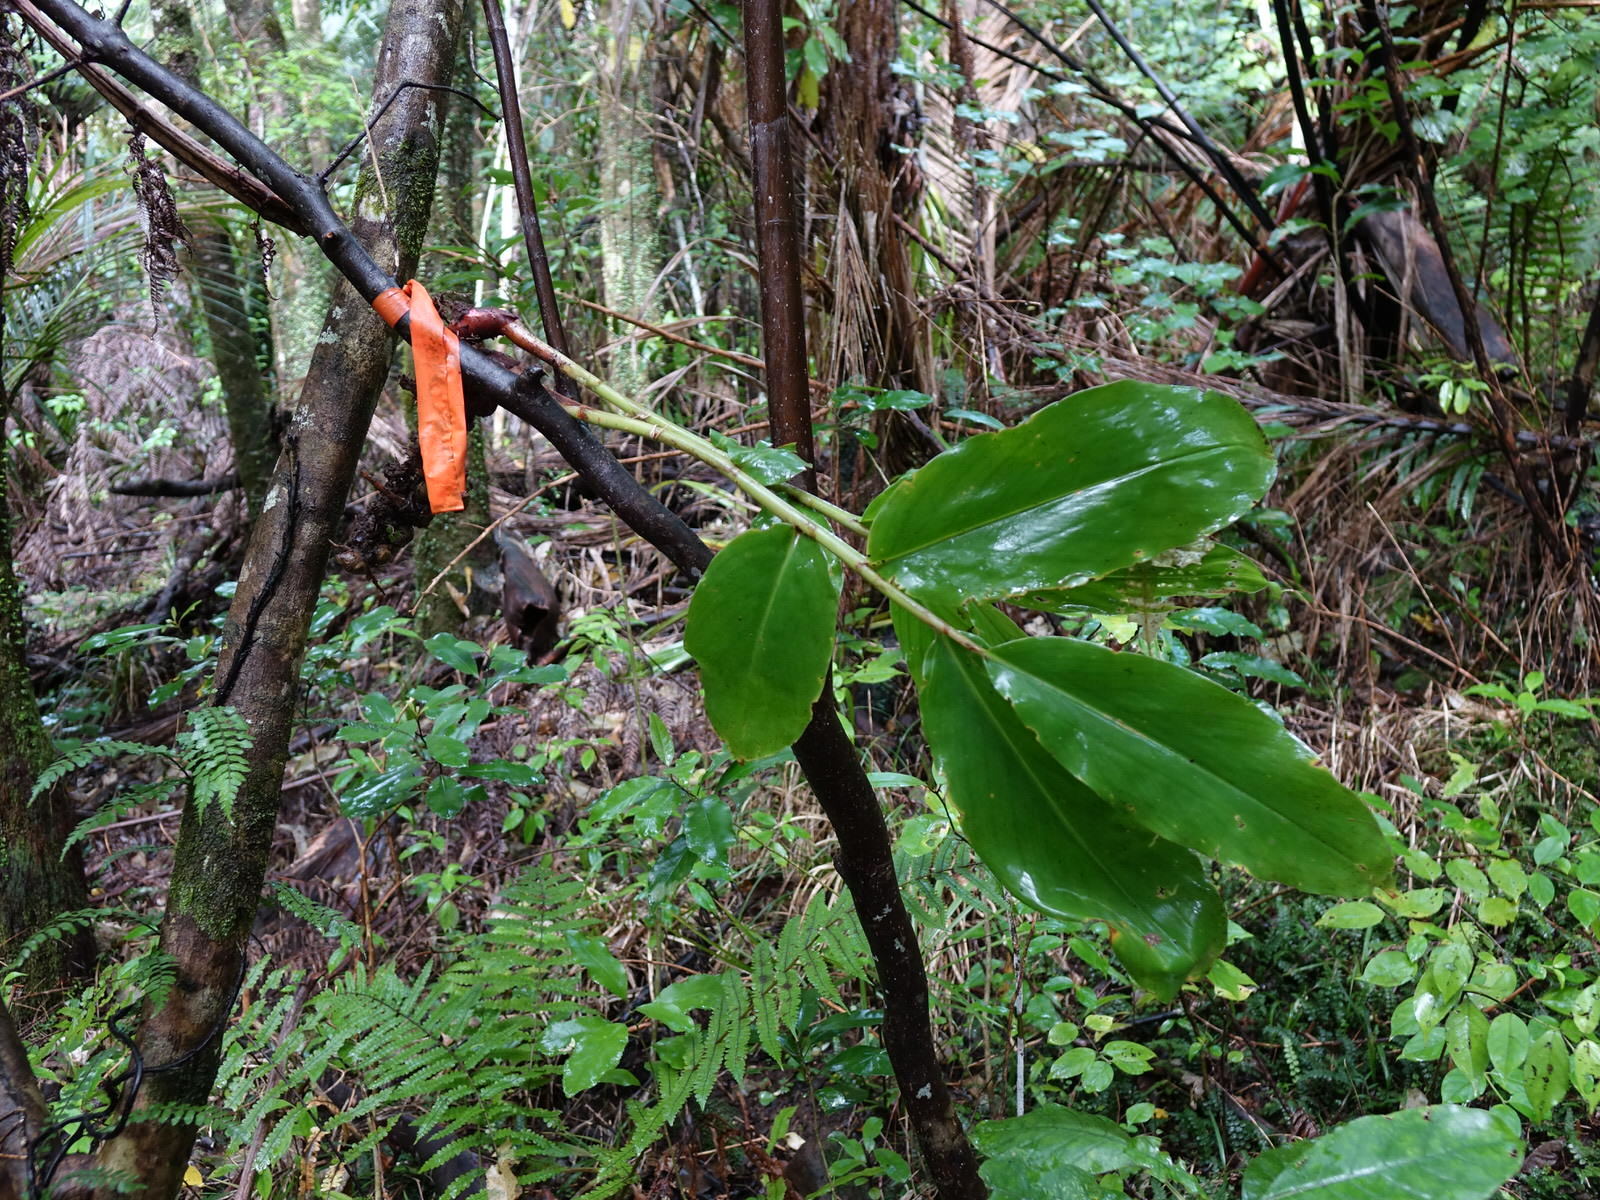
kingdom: Plantae
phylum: Tracheophyta
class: Liliopsida
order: Zingiberales
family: Zingiberaceae
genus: Hedychium
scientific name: Hedychium gardnerianum
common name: Himalayan ginger
